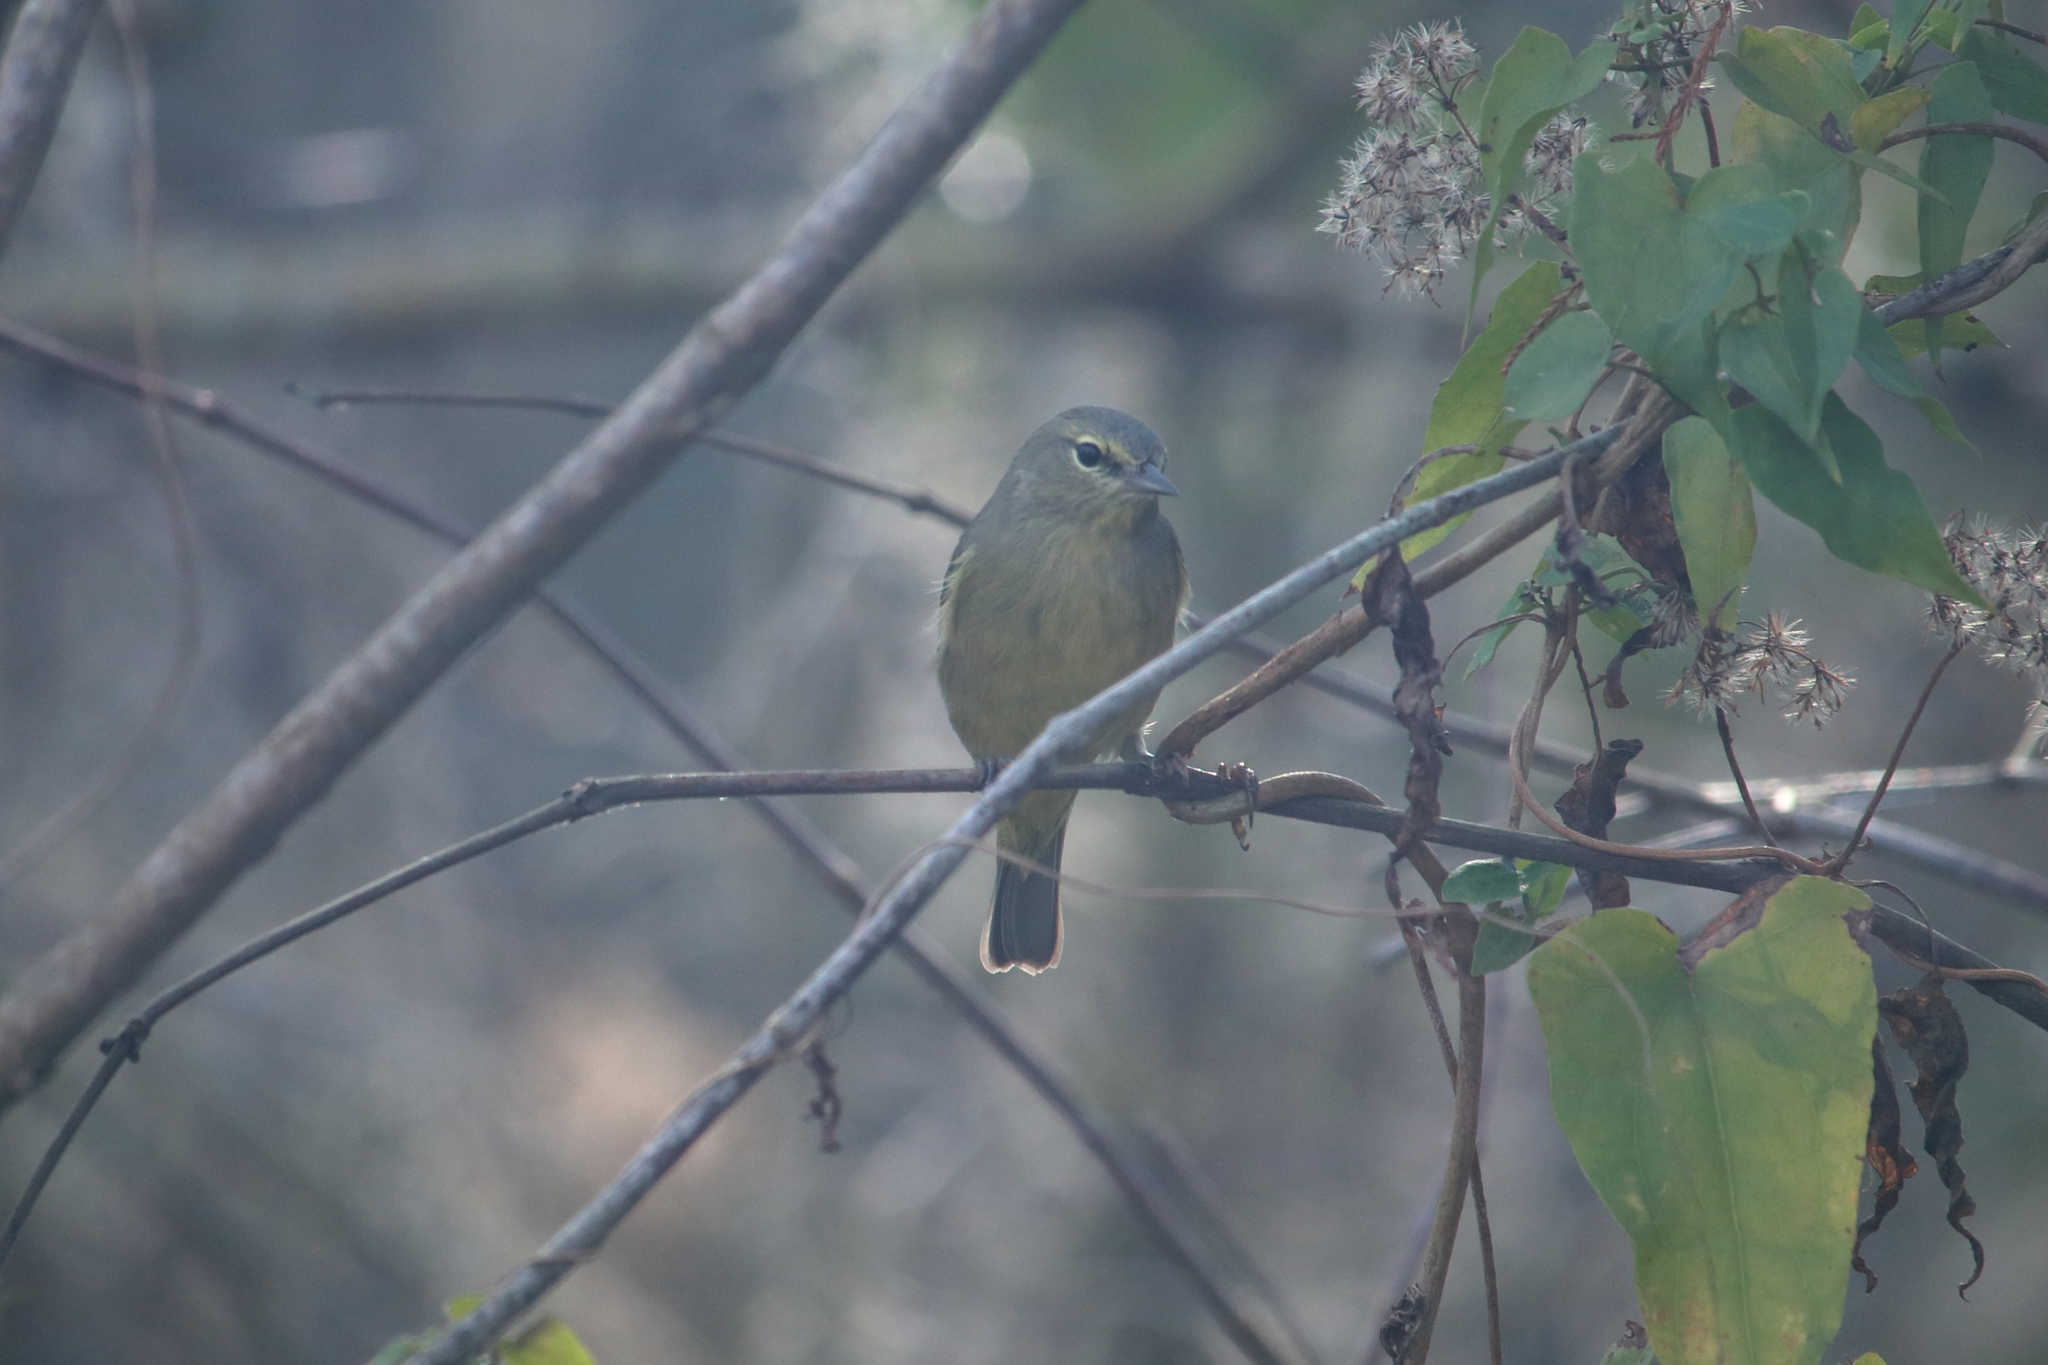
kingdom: Animalia
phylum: Chordata
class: Aves
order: Passeriformes
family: Parulidae
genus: Leiothlypis
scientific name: Leiothlypis celata
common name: Orange-crowned warbler
